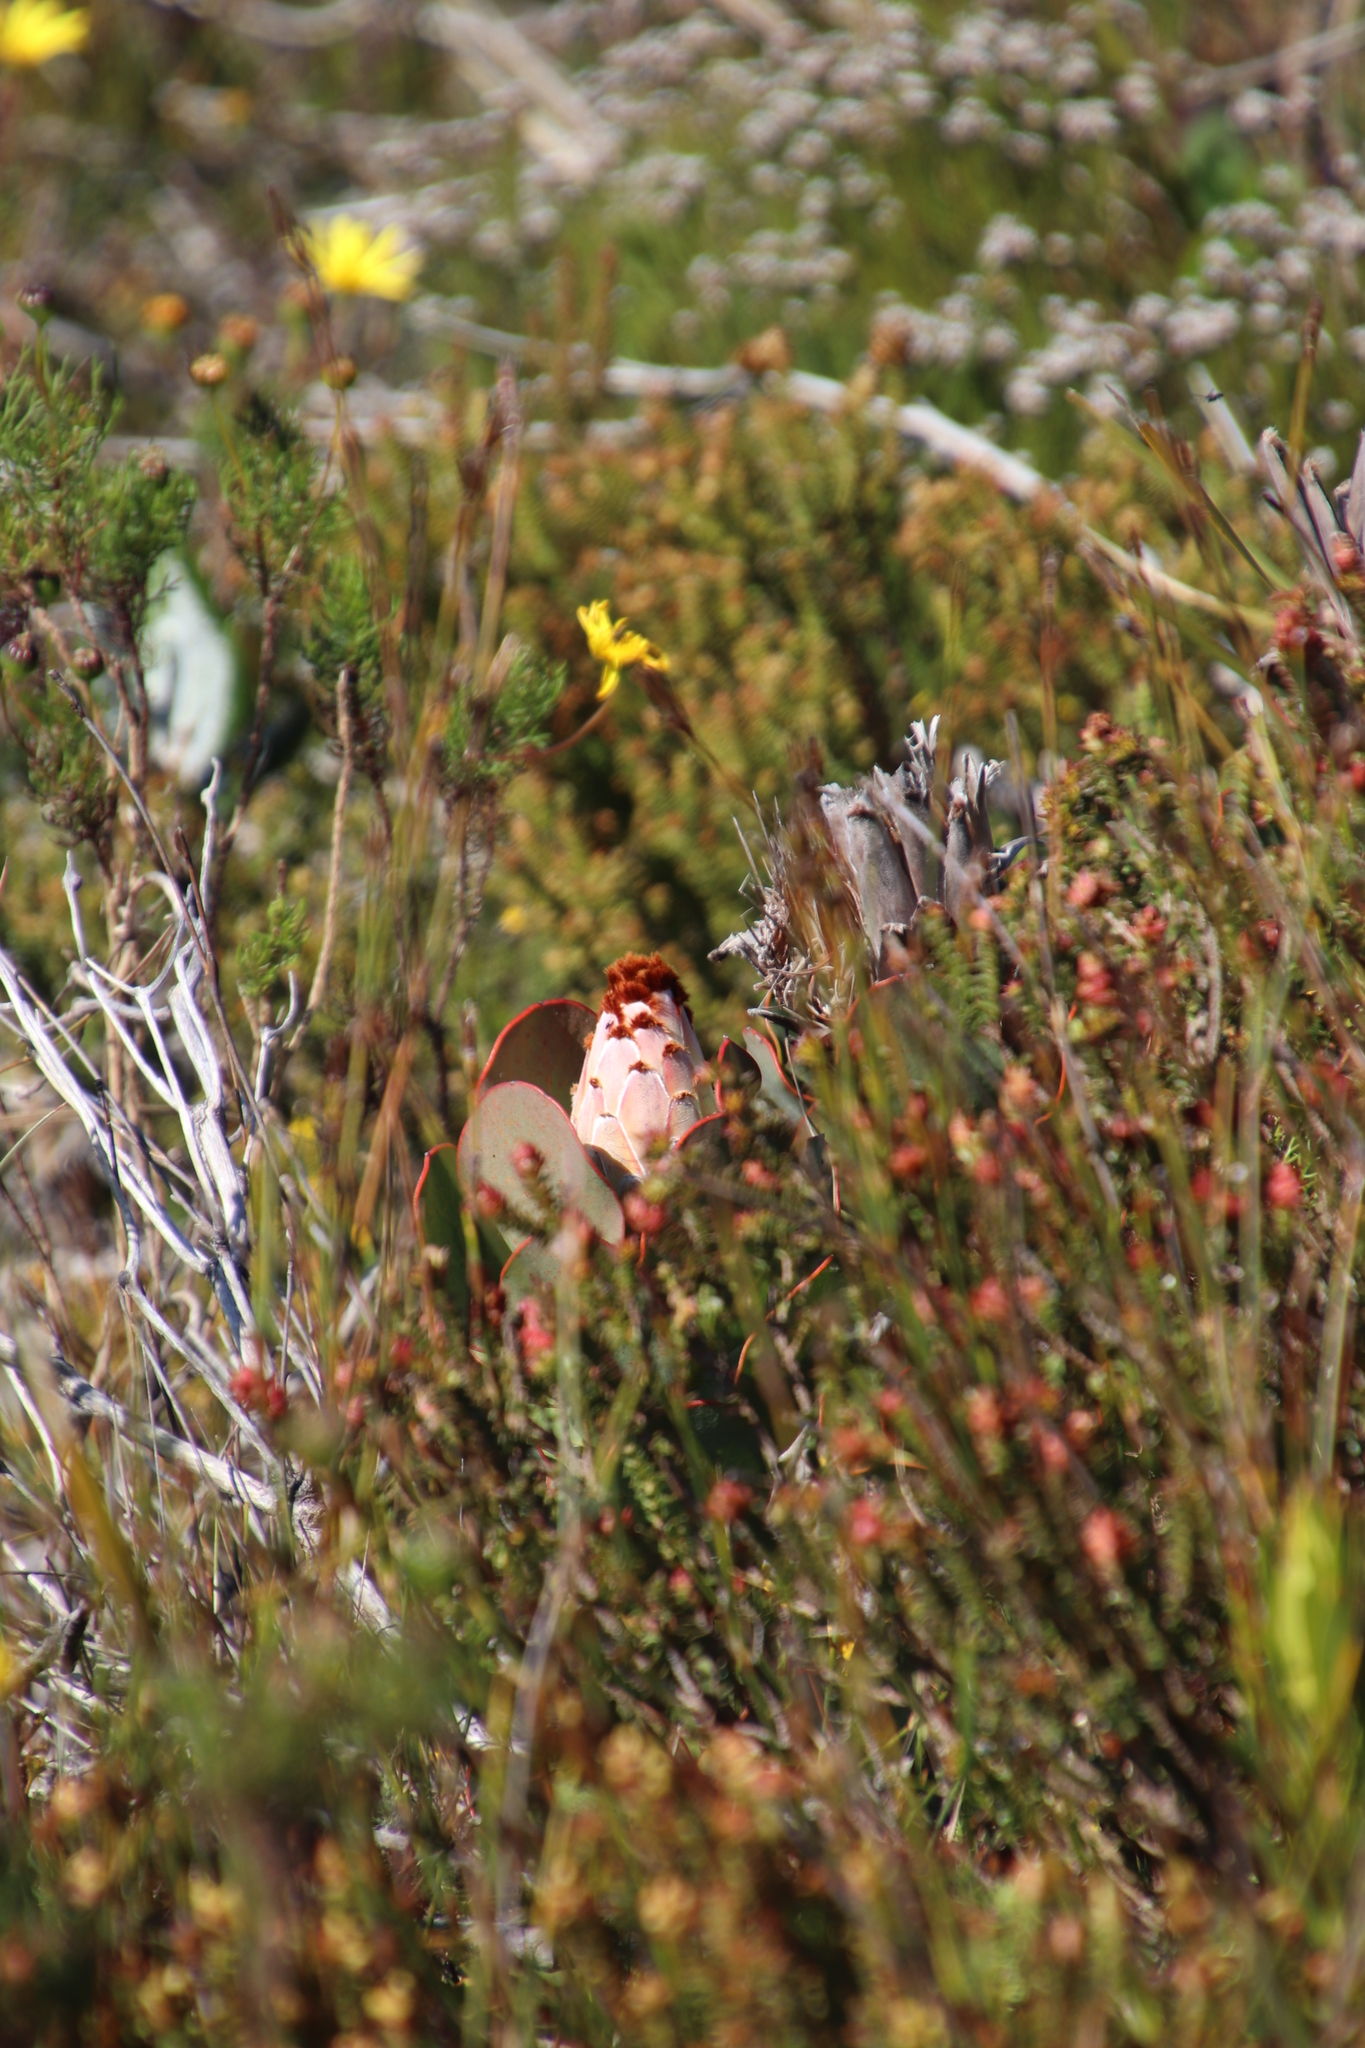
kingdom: Plantae
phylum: Tracheophyta
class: Magnoliopsida
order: Proteales
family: Proteaceae
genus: Protea
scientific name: Protea speciosa
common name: Brown-beard sugarbush
